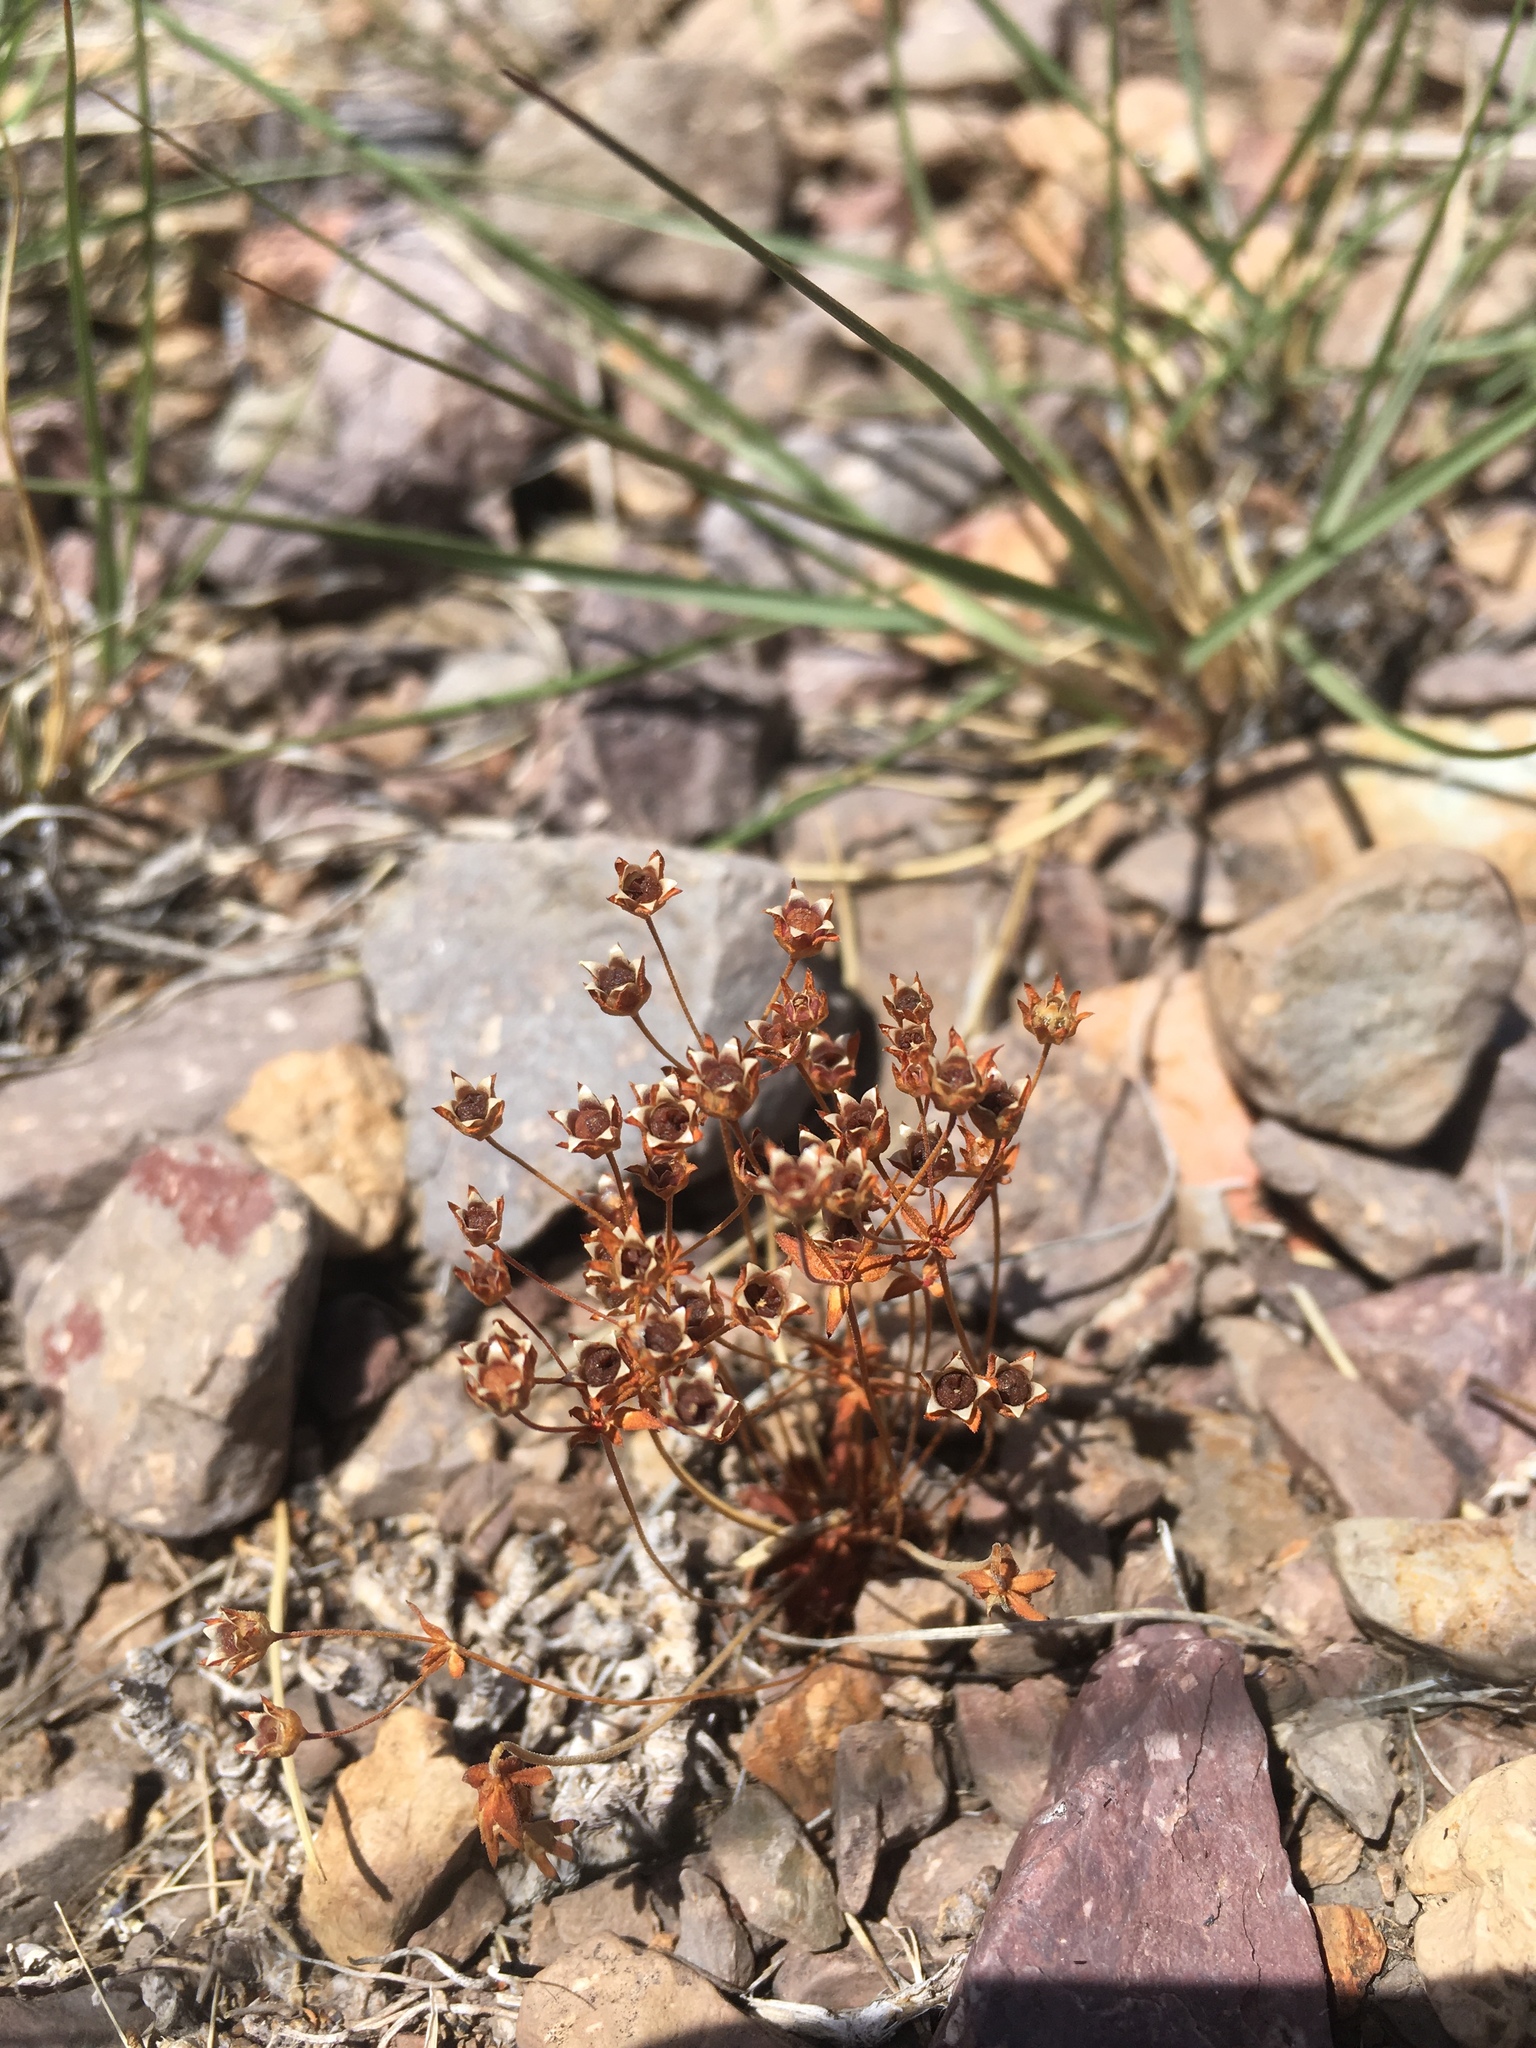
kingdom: Plantae
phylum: Tracheophyta
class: Magnoliopsida
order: Ericales
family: Primulaceae
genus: Androsace
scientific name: Androsace occidentalis
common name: West rock-jasmine
